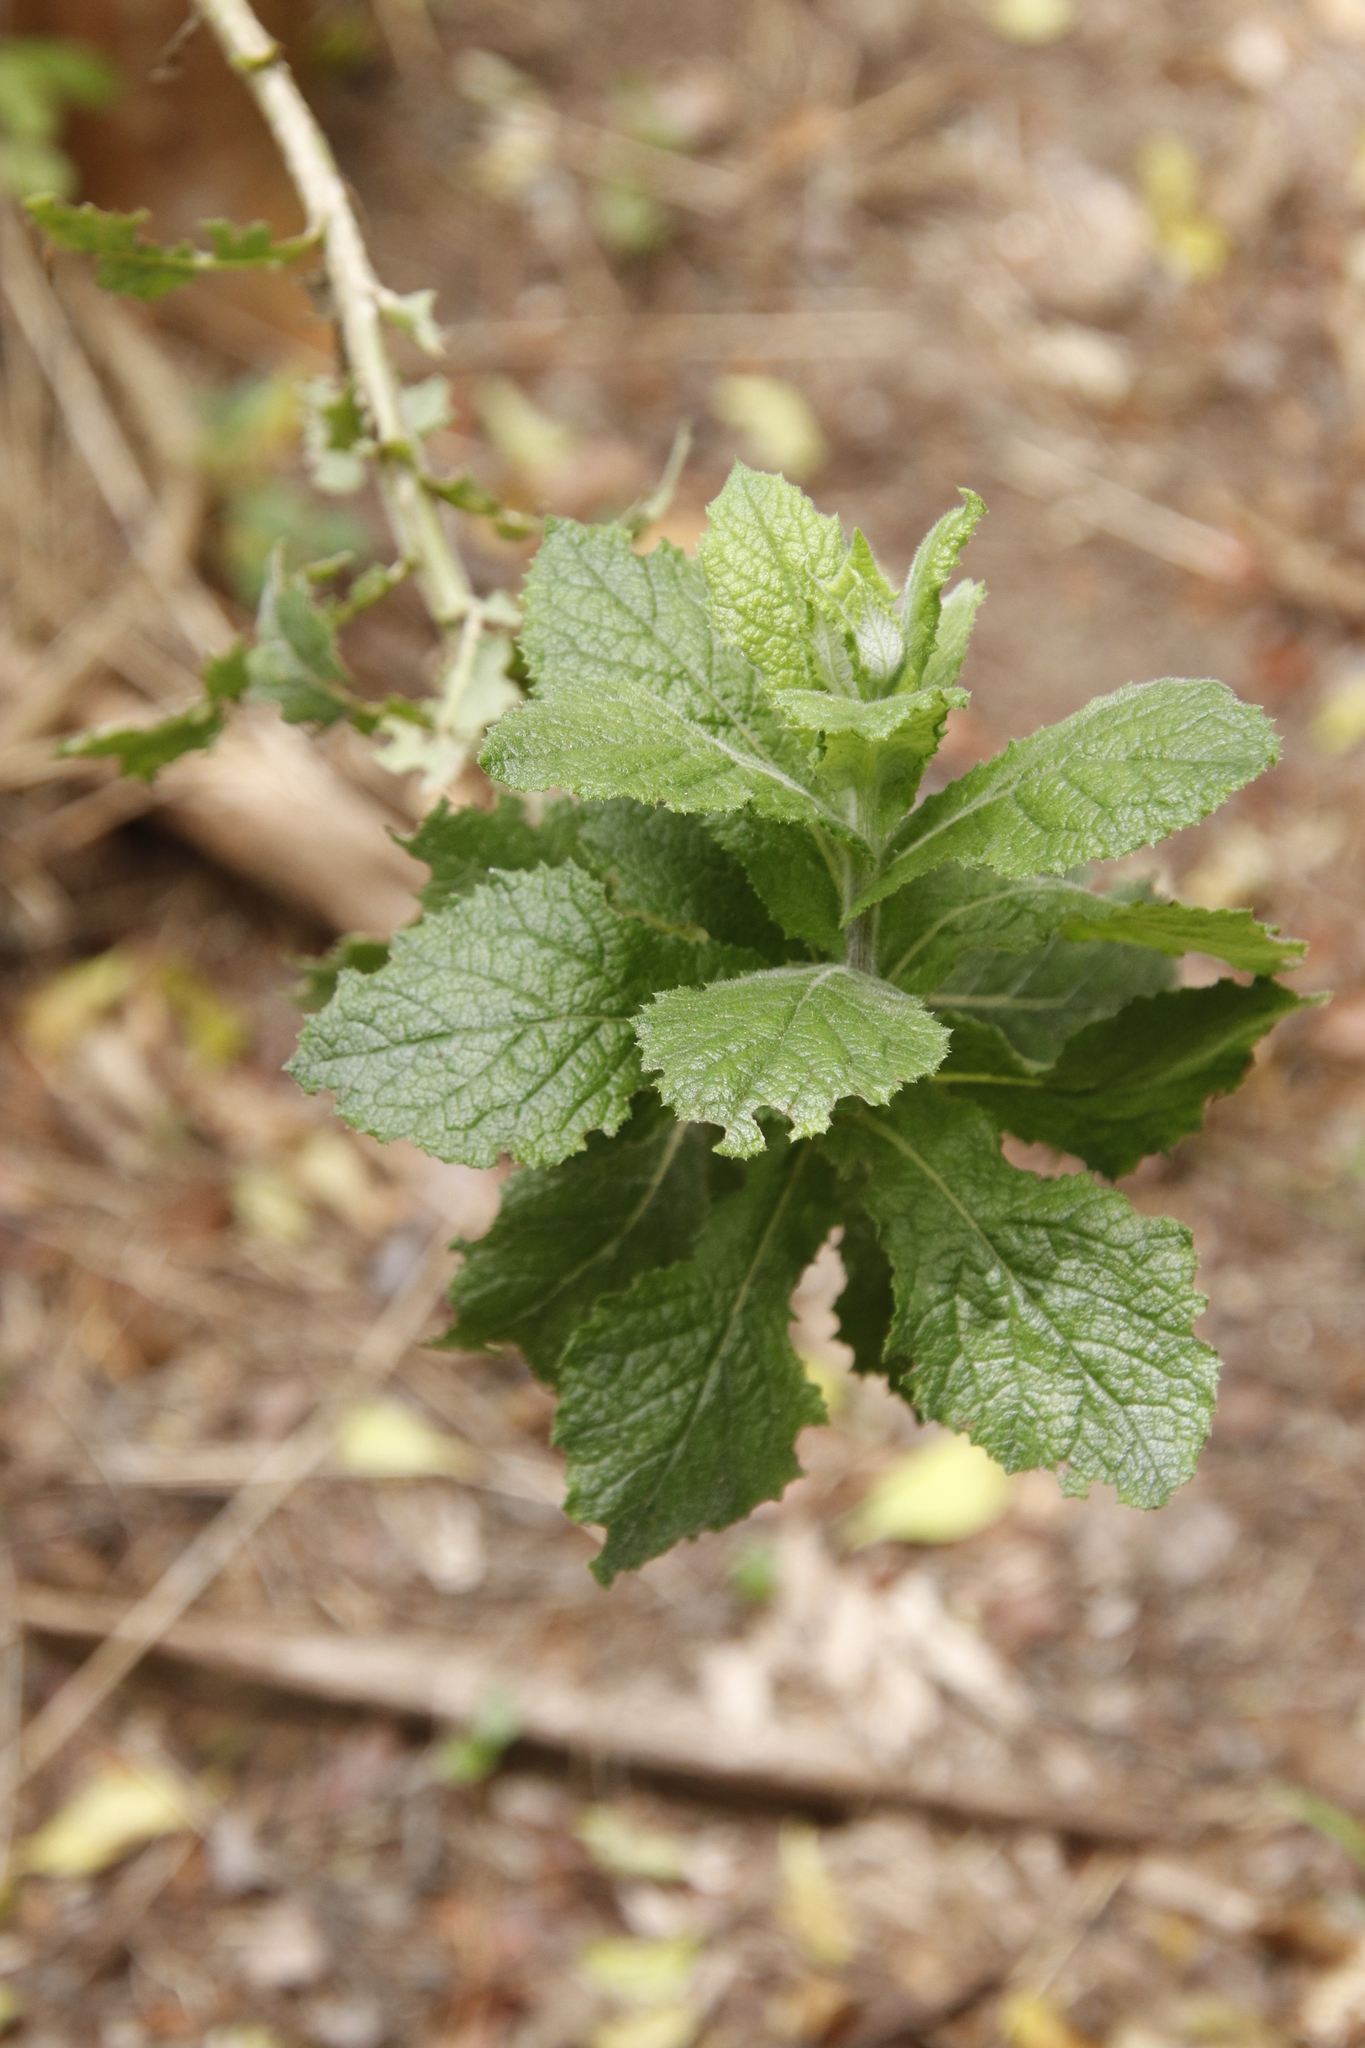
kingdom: Plantae
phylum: Tracheophyta
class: Magnoliopsida
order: Asterales
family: Asteraceae
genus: Senecio
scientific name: Senecio rigidus
